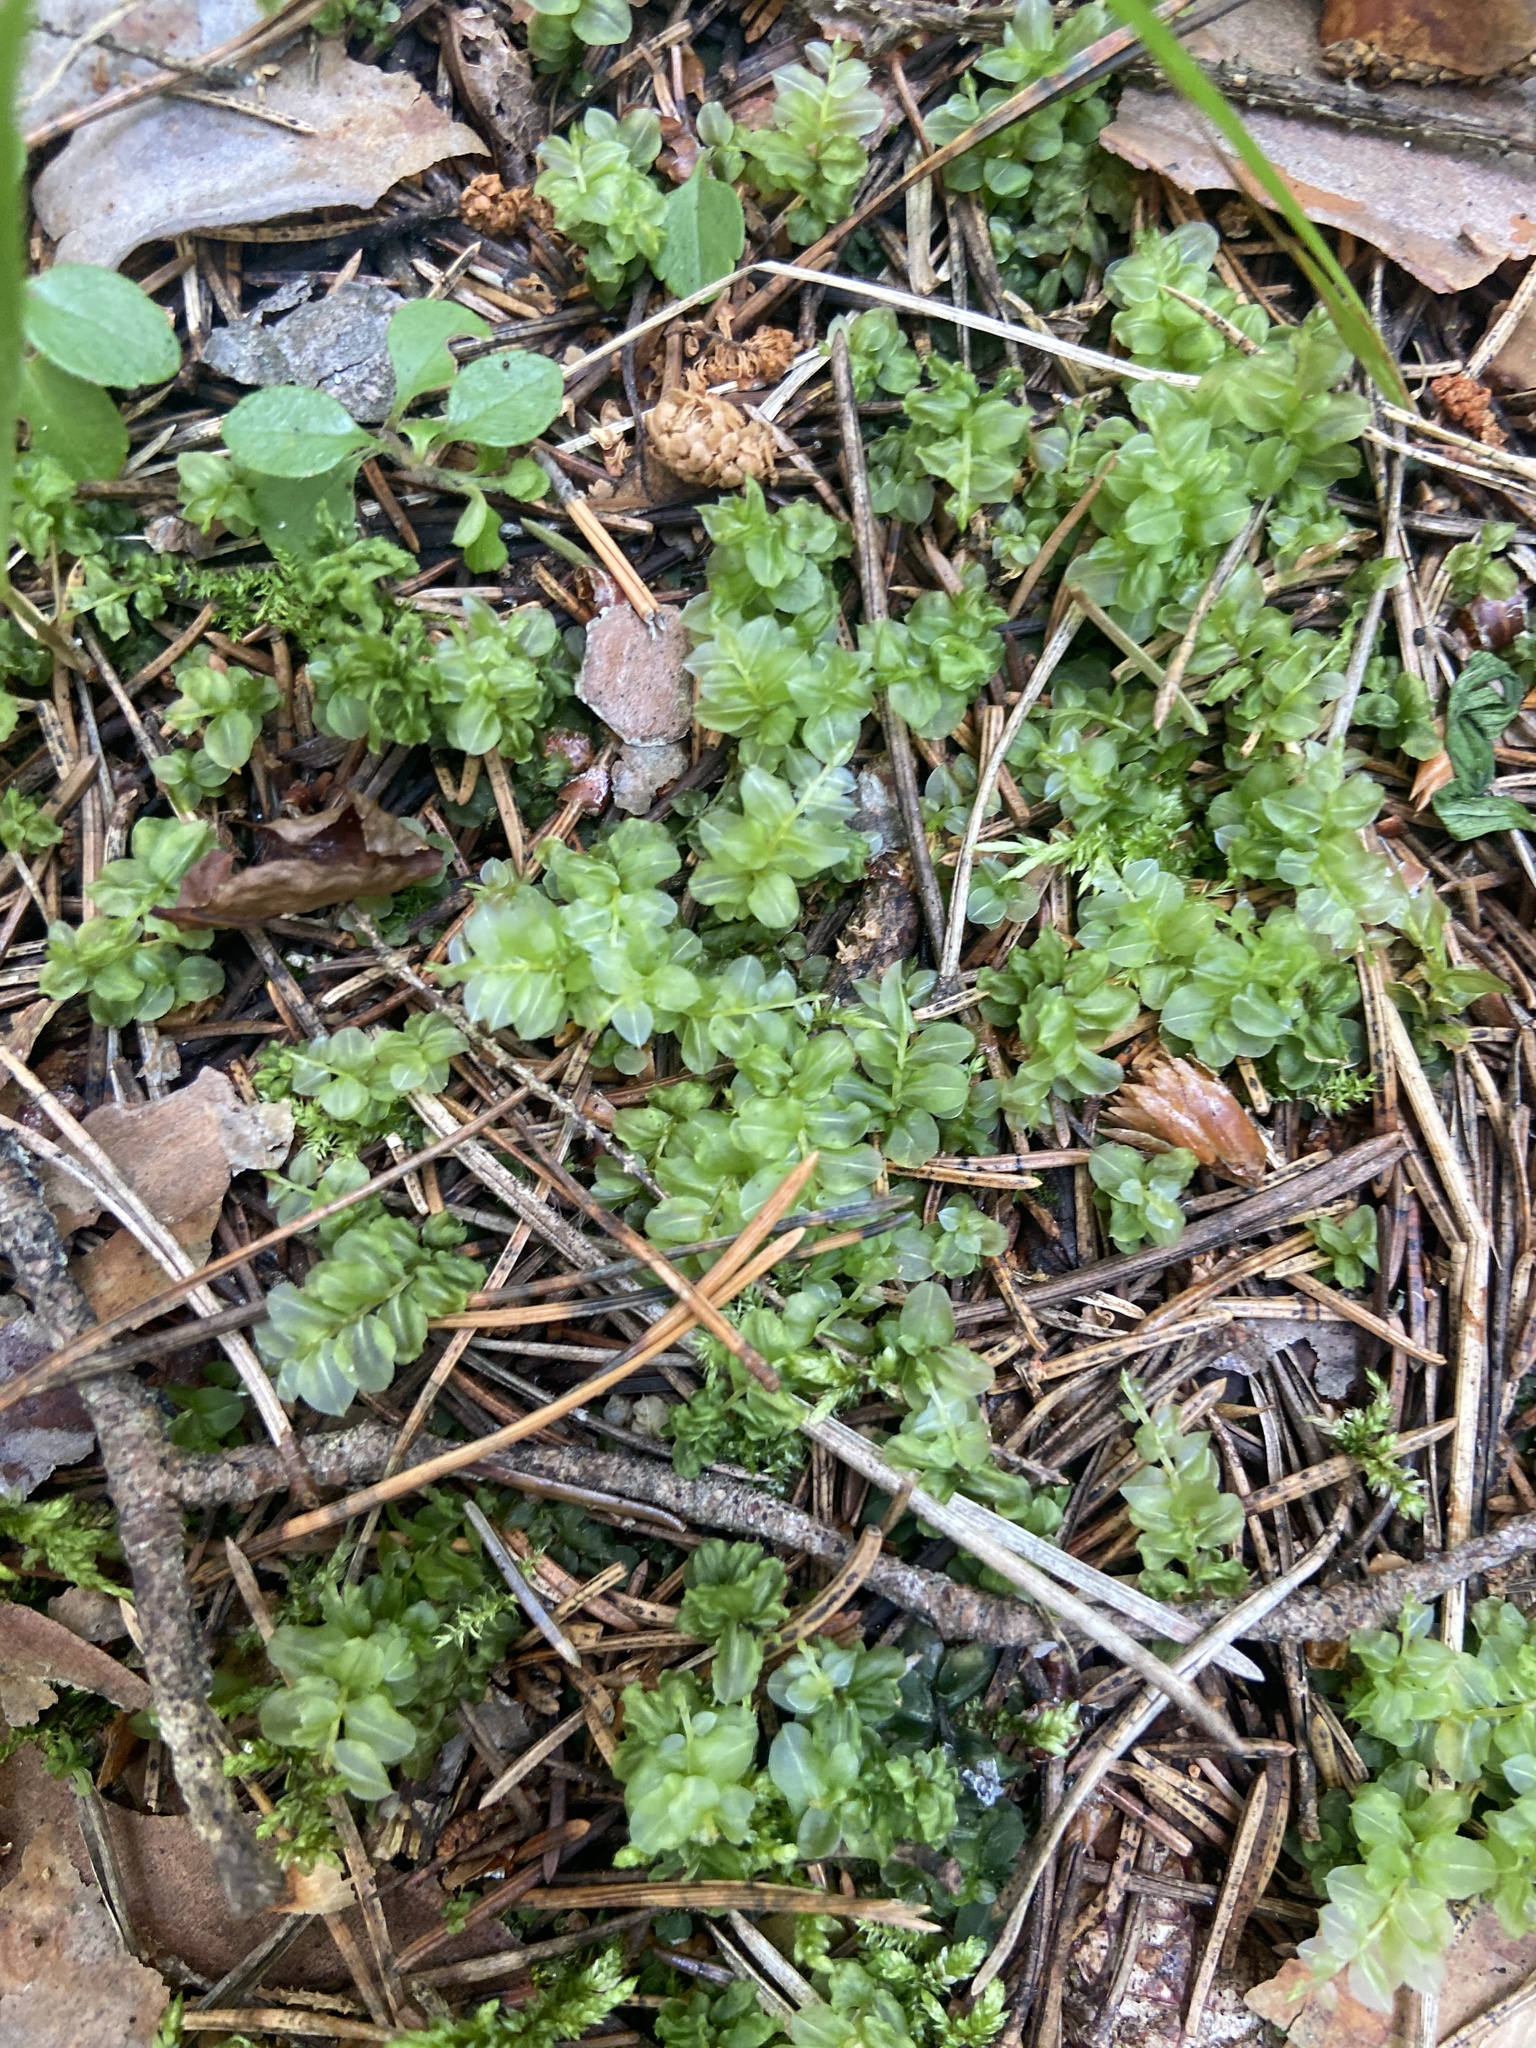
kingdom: Plantae
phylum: Bryophyta
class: Bryopsida
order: Bryales
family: Mniaceae
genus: Plagiomnium
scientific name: Plagiomnium affine
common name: Many-fruited thyme-moss
